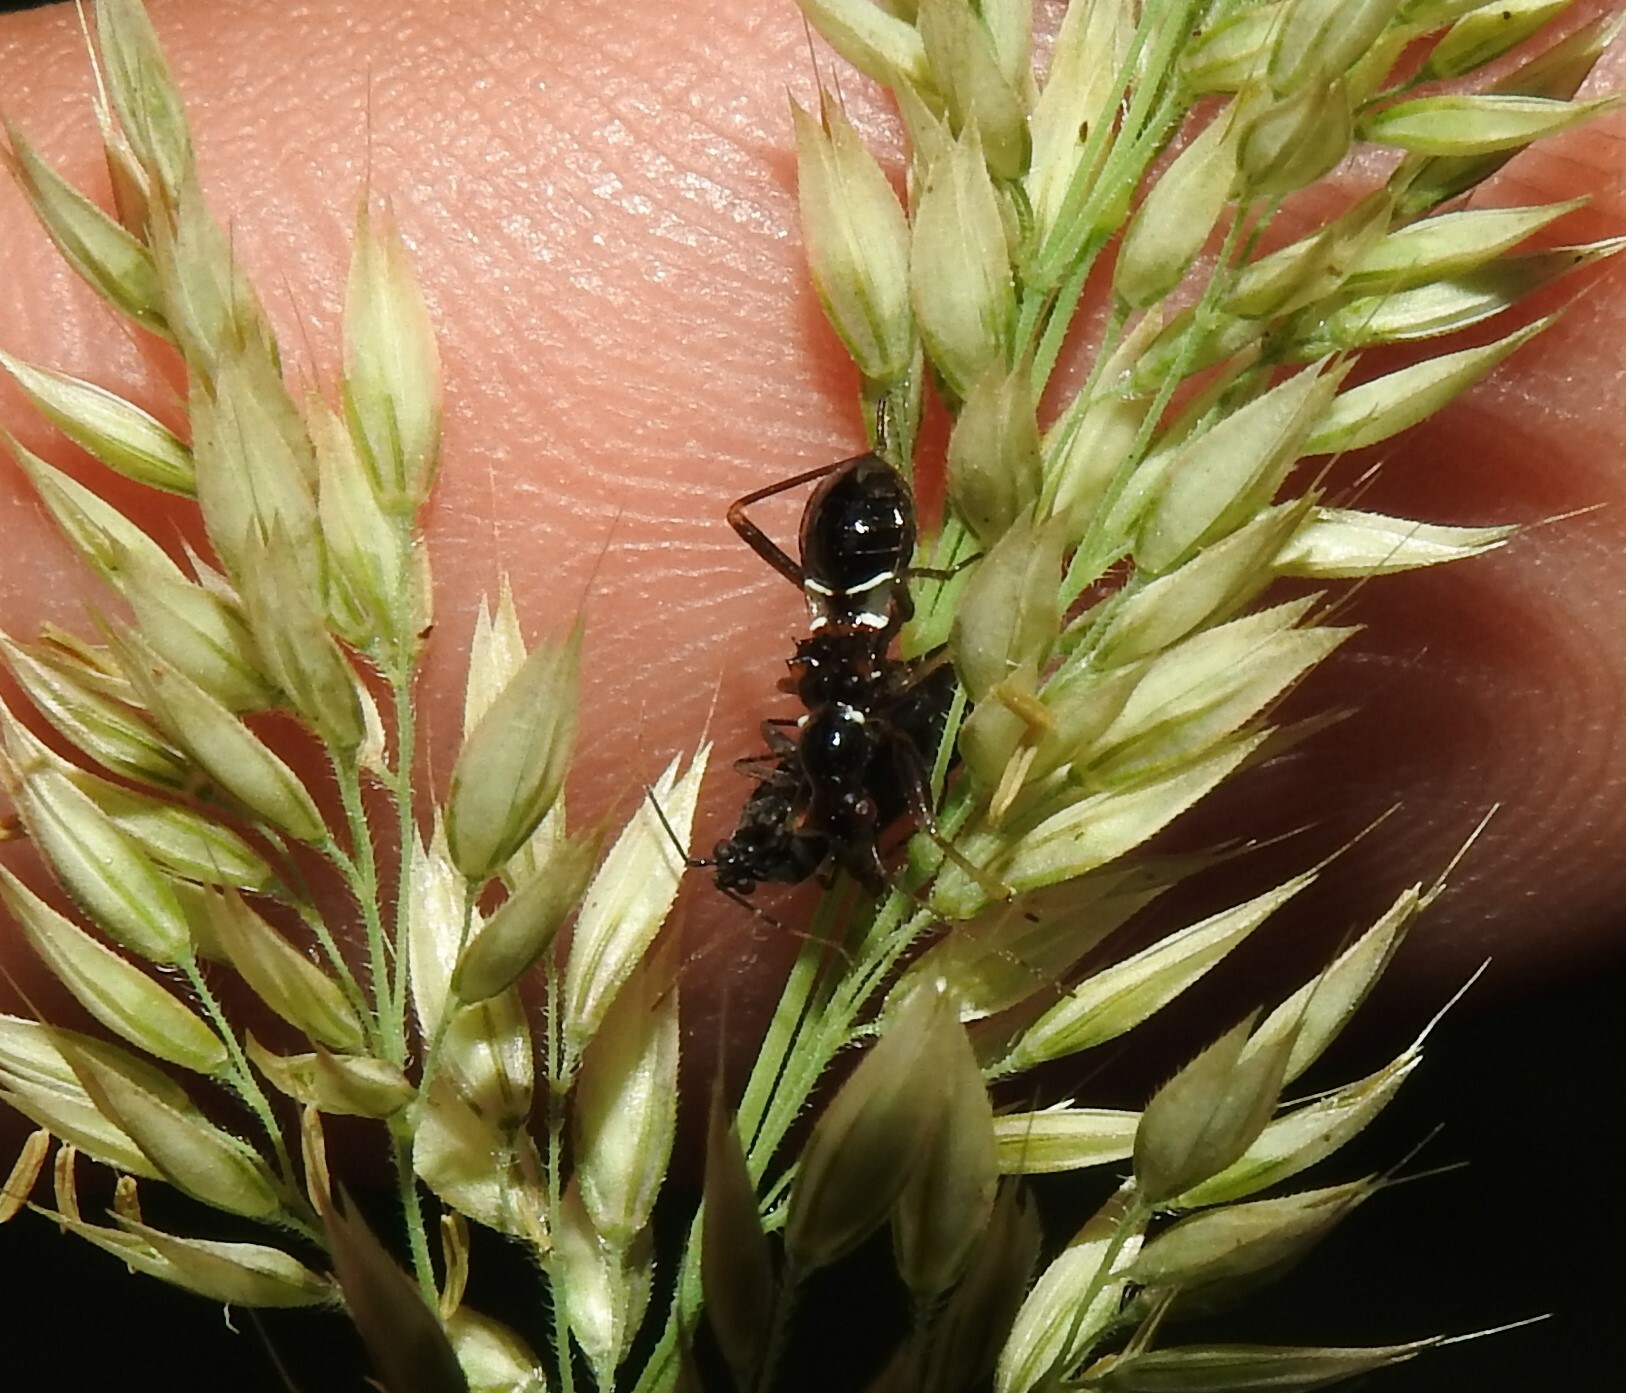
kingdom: Animalia
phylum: Arthropoda
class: Insecta
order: Hemiptera
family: Nabidae
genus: Himacerus
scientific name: Himacerus mirmicoides
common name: Ant damsel bug
